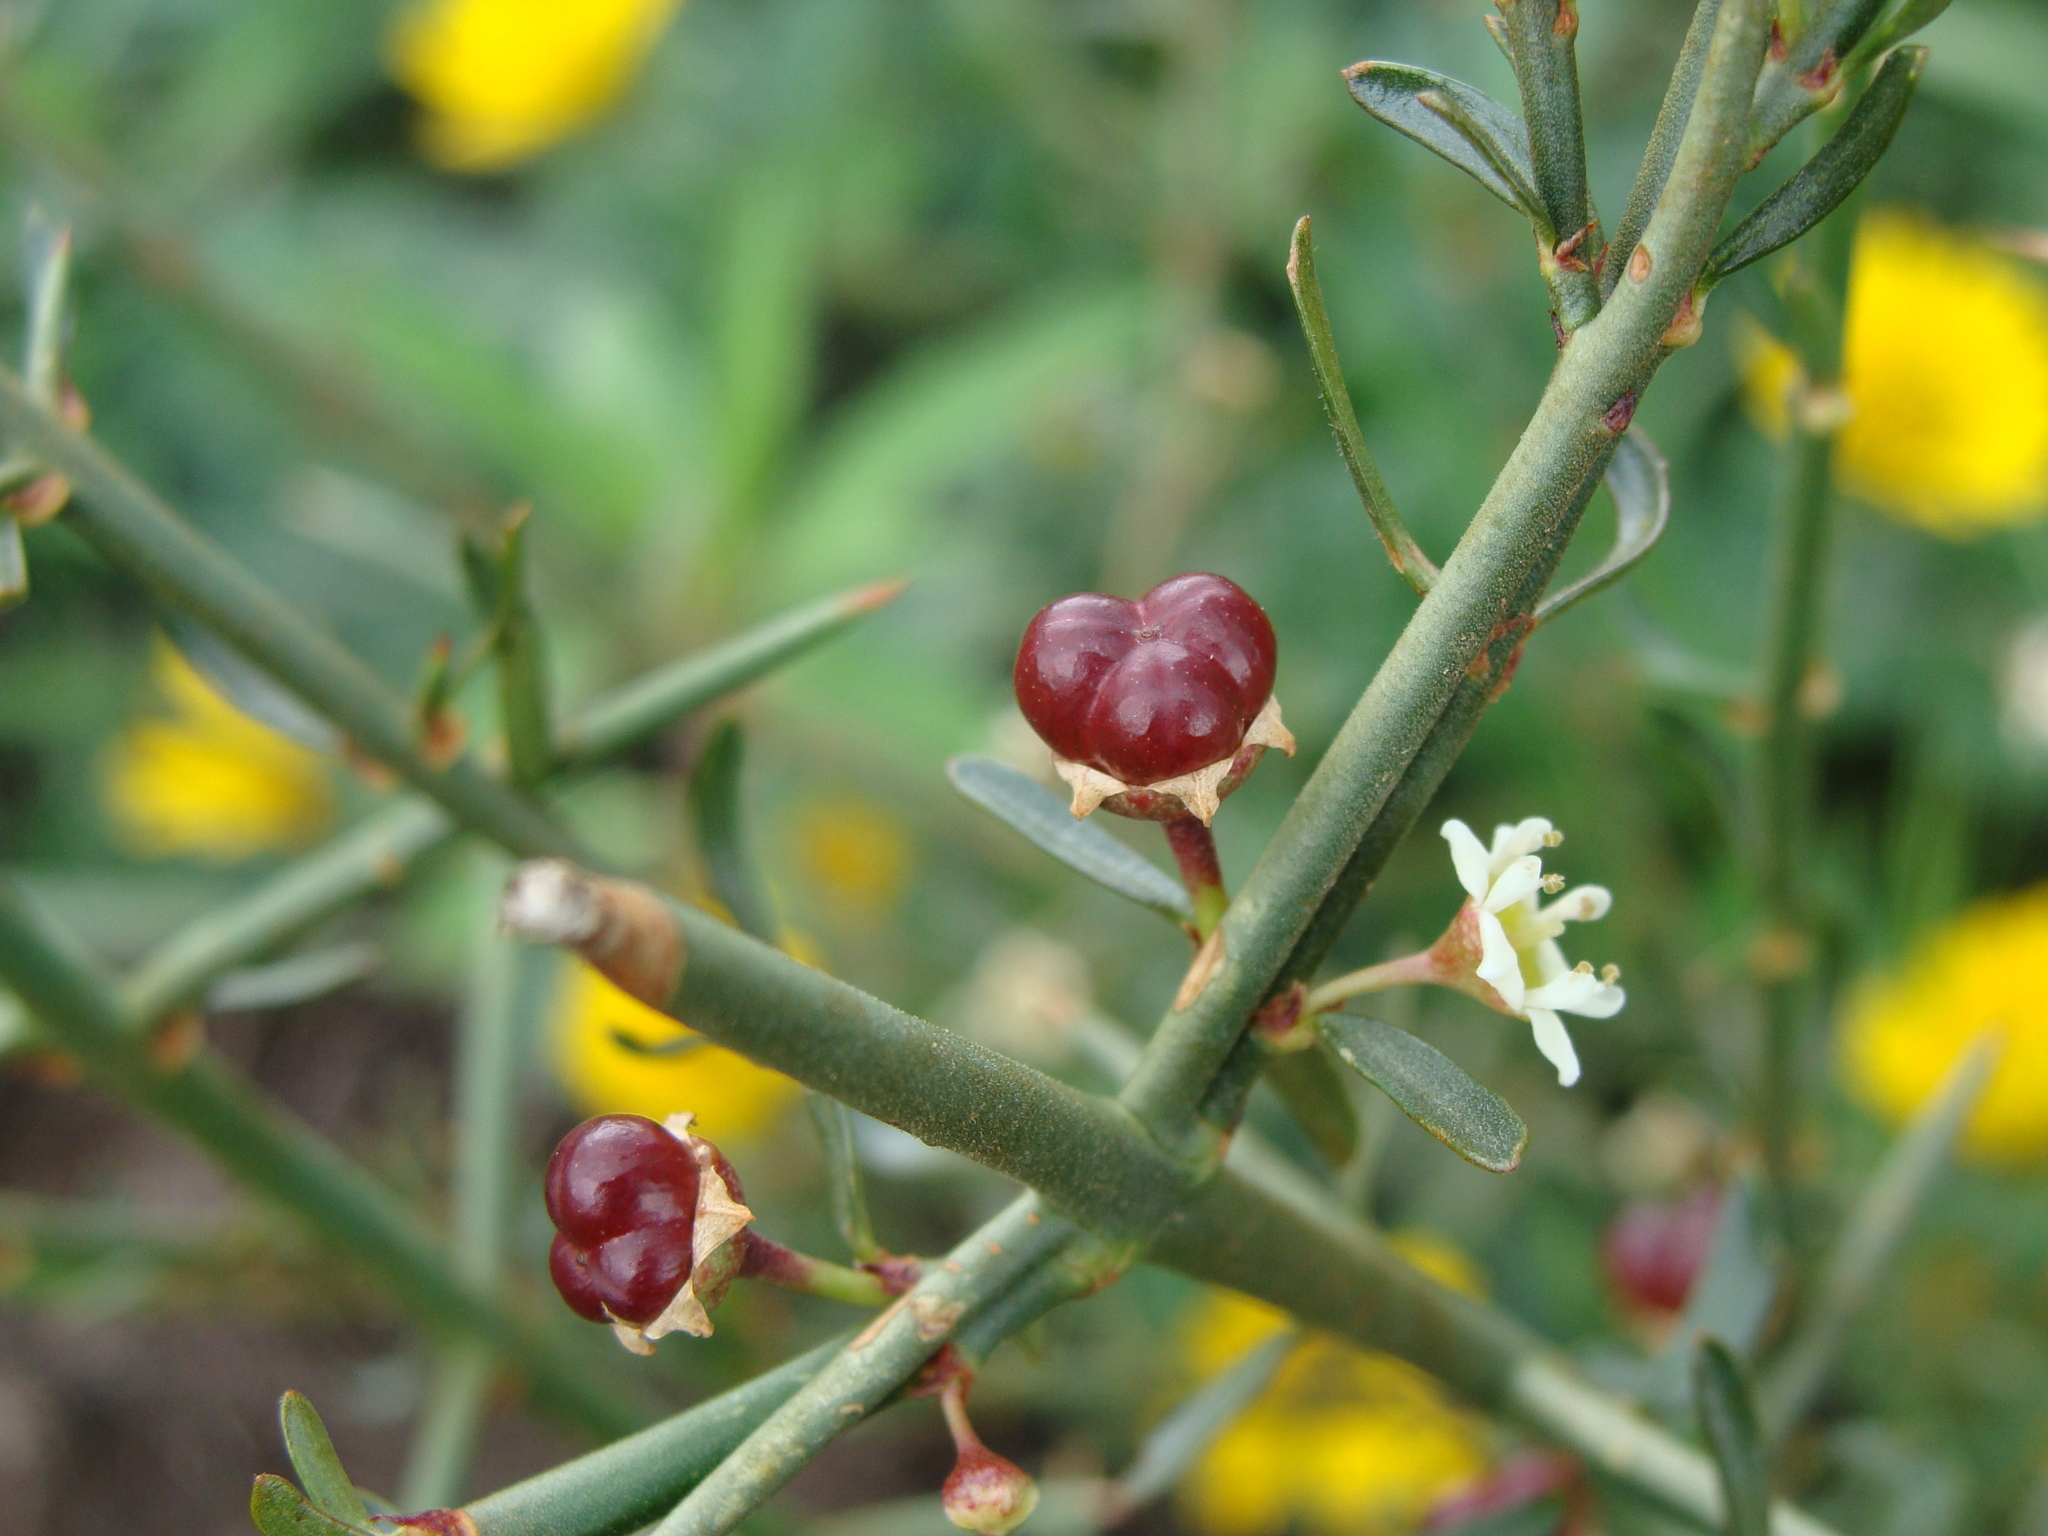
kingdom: Plantae
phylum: Tracheophyta
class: Magnoliopsida
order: Rosales
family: Rhamnaceae
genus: Adolphia
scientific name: Adolphia infesta
